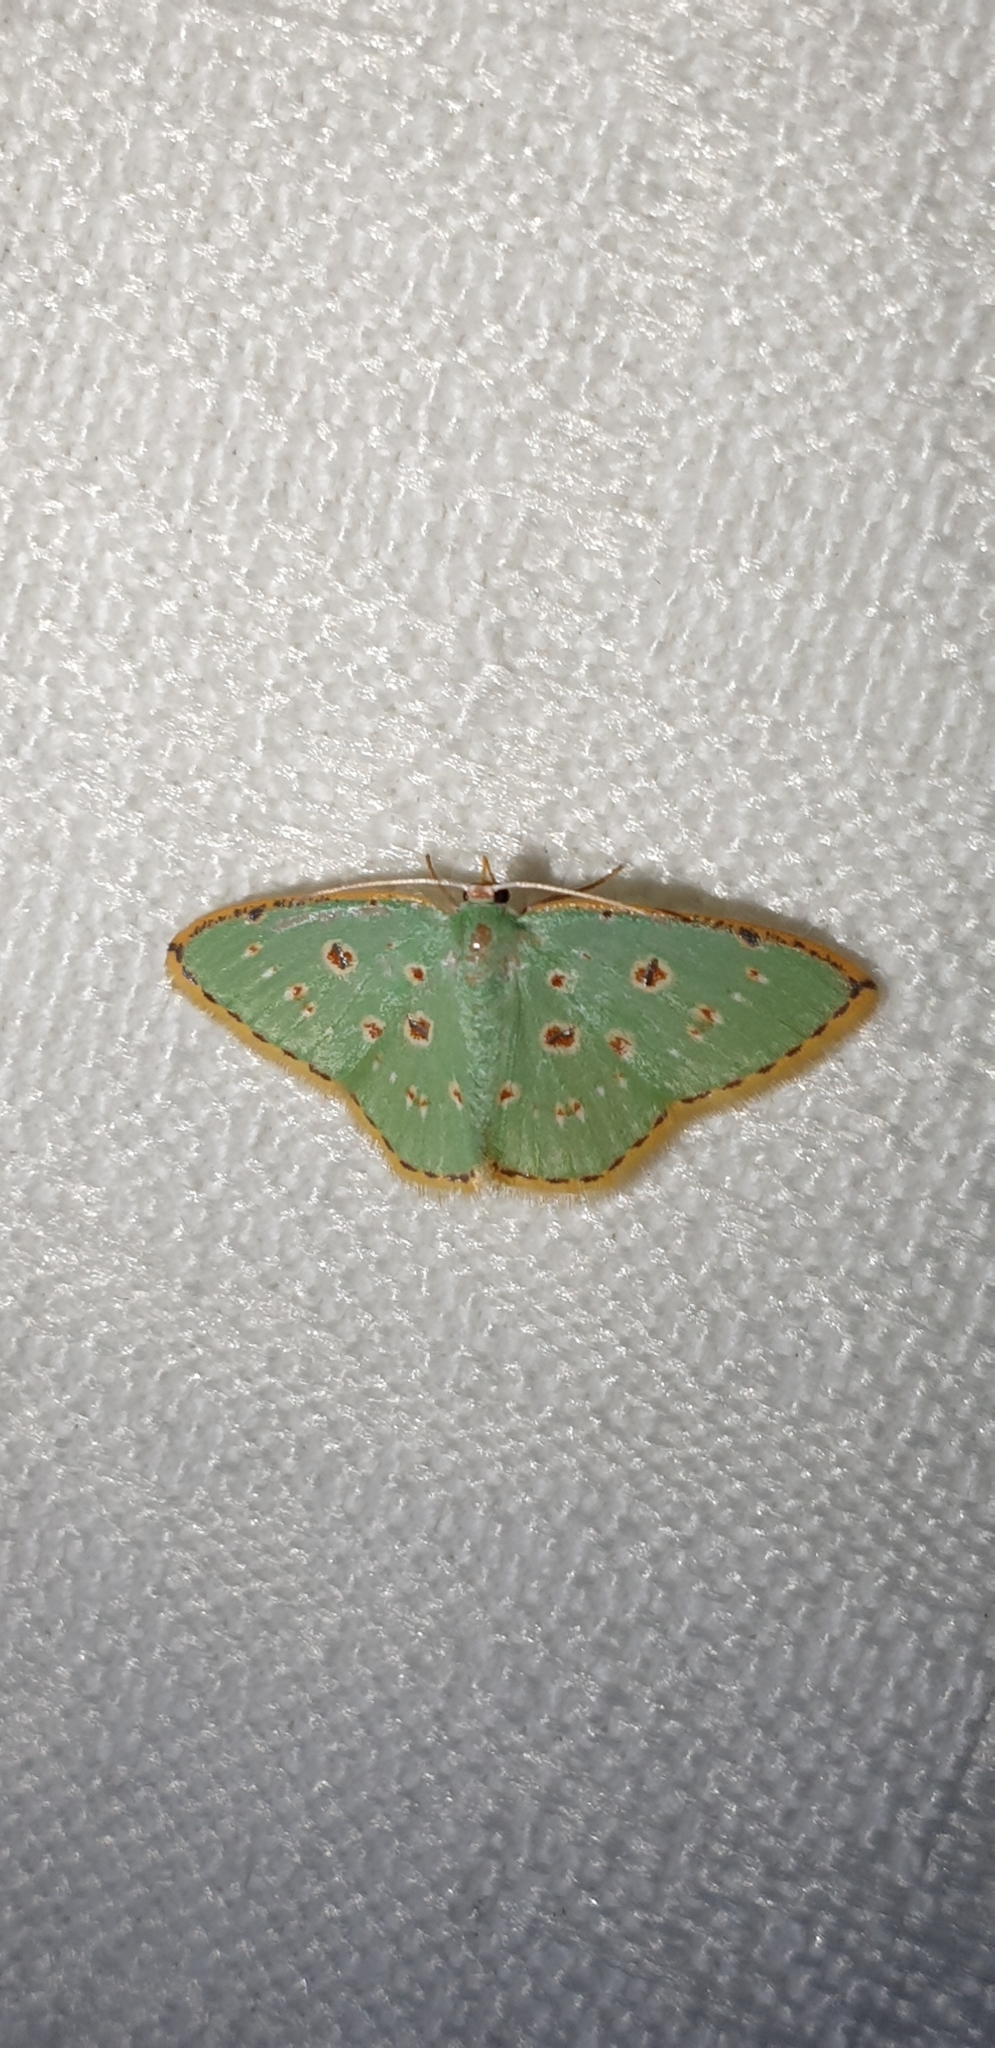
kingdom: Animalia
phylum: Arthropoda
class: Insecta
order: Lepidoptera
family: Geometridae
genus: Comostola
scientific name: Comostola laesaria
